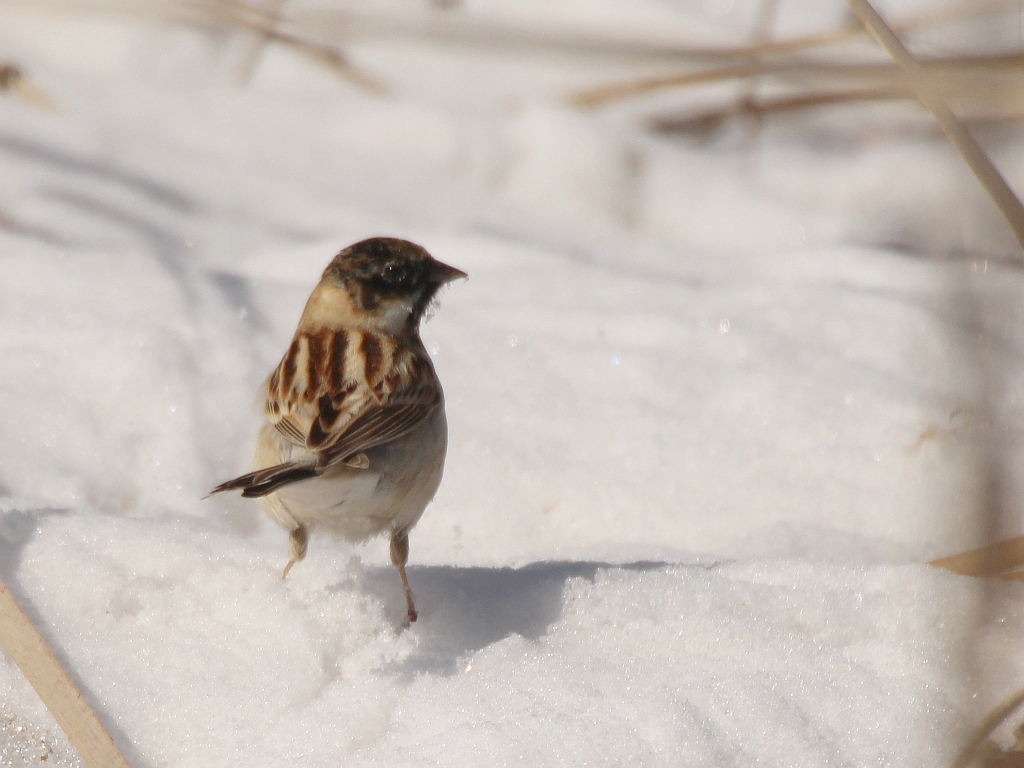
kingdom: Animalia
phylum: Chordata
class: Aves
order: Passeriformes
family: Emberizidae
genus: Emberiza
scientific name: Emberiza pallasi
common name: Pallas's reed bunting
